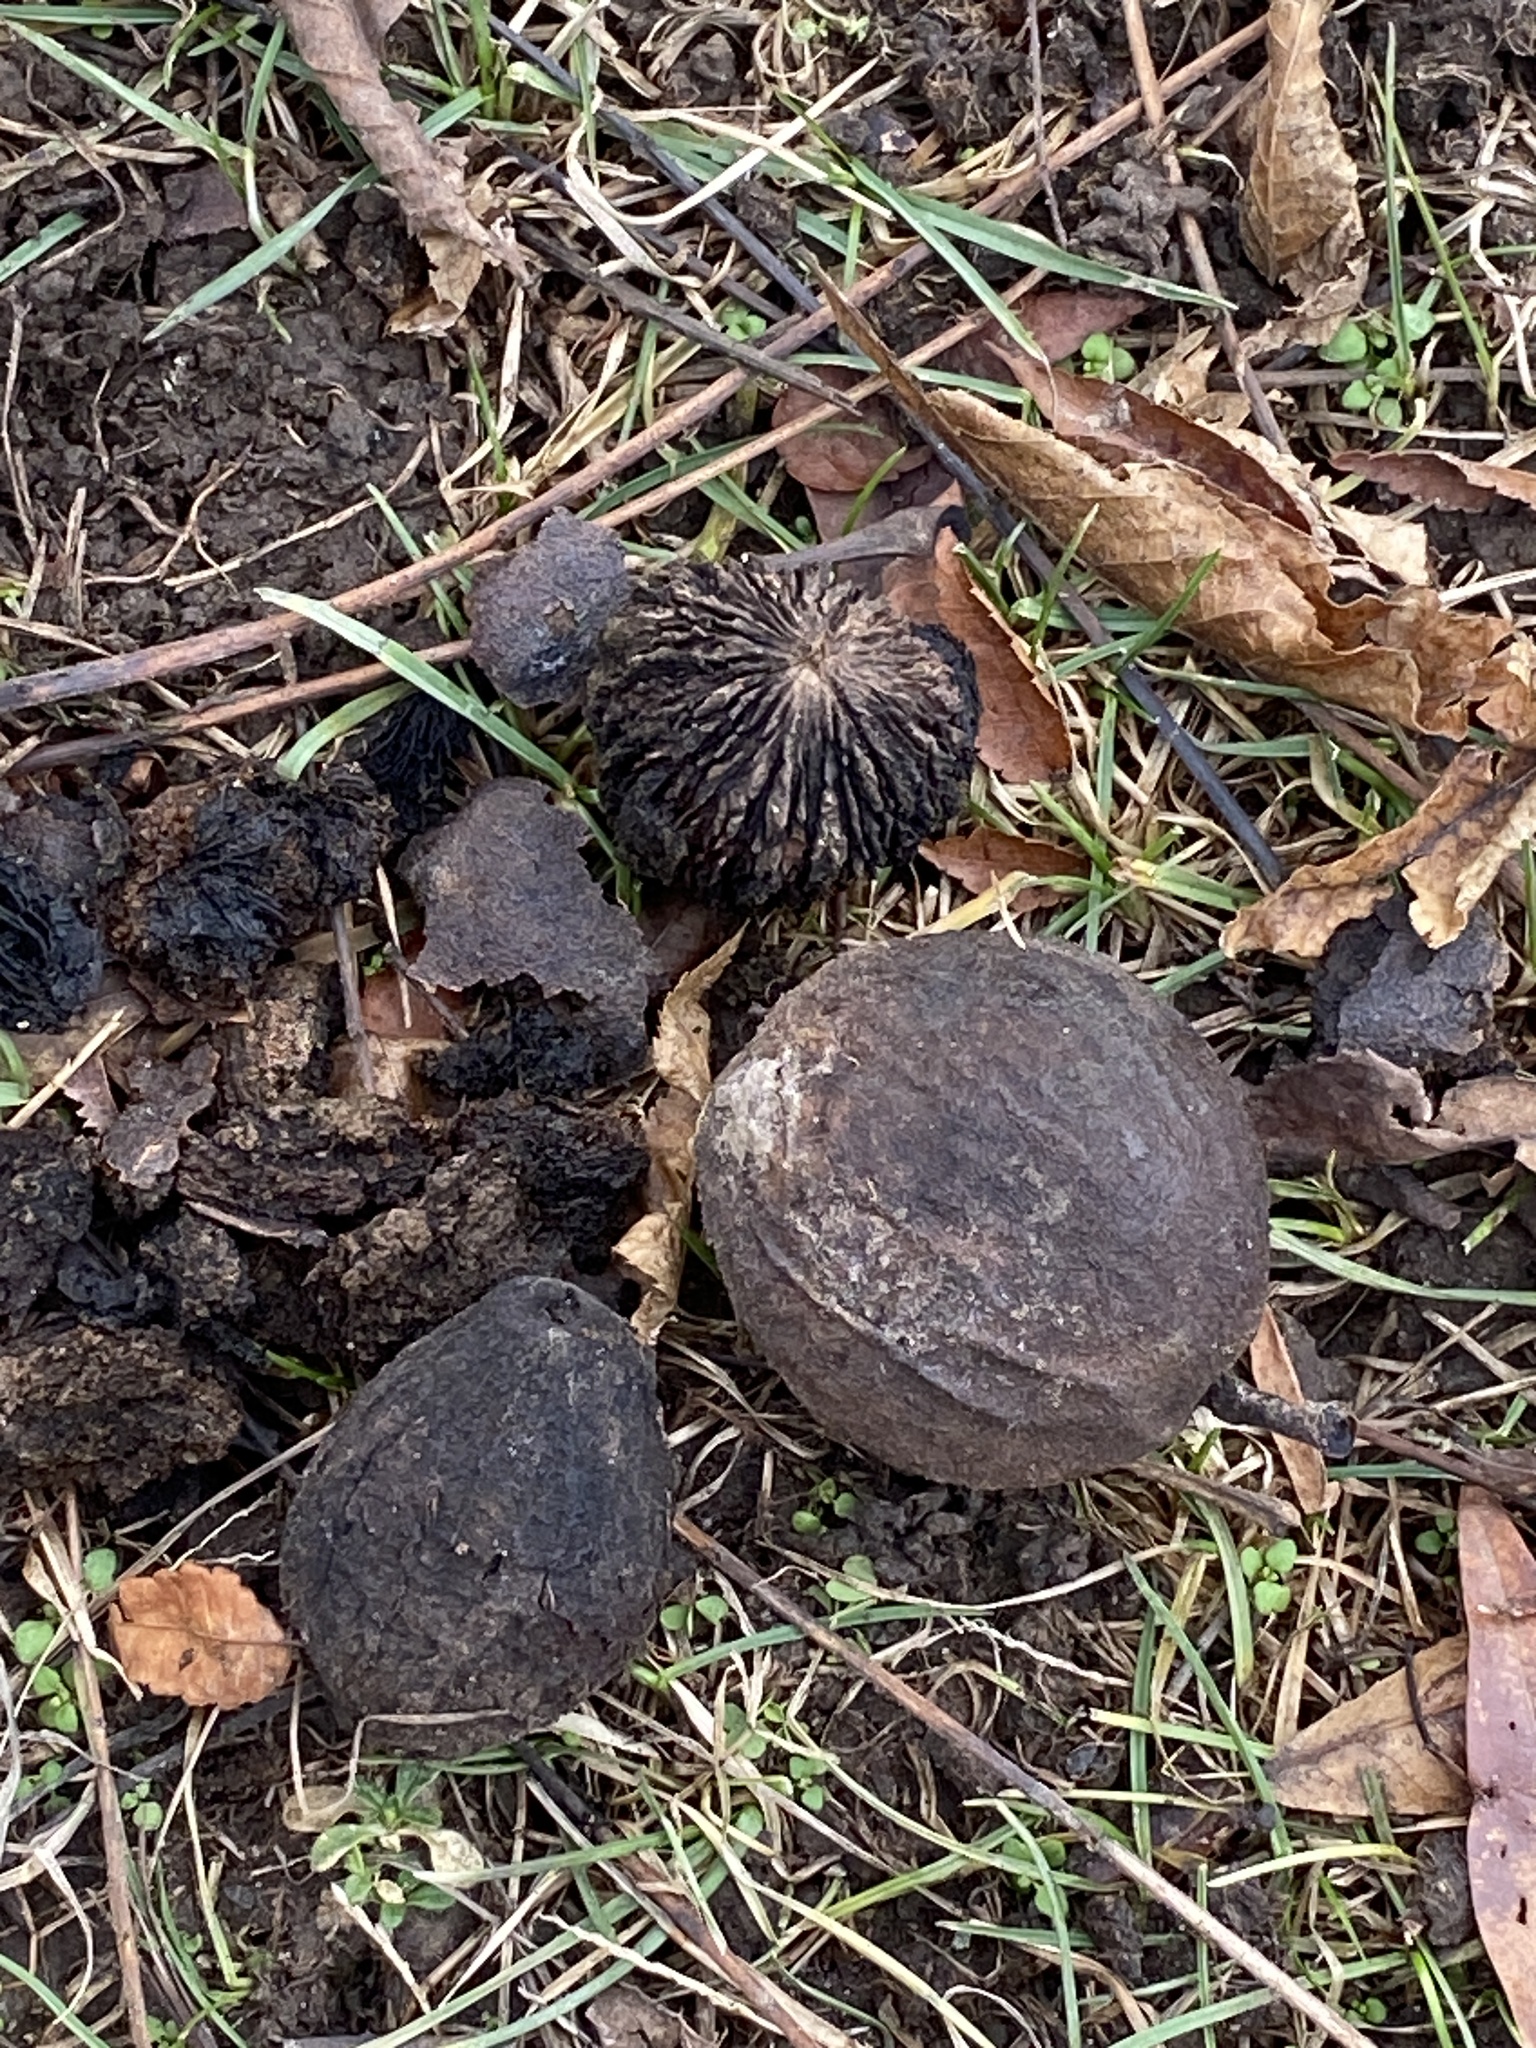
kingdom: Plantae
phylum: Tracheophyta
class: Magnoliopsida
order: Fagales
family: Juglandaceae
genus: Juglans
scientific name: Juglans nigra
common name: Black walnut
